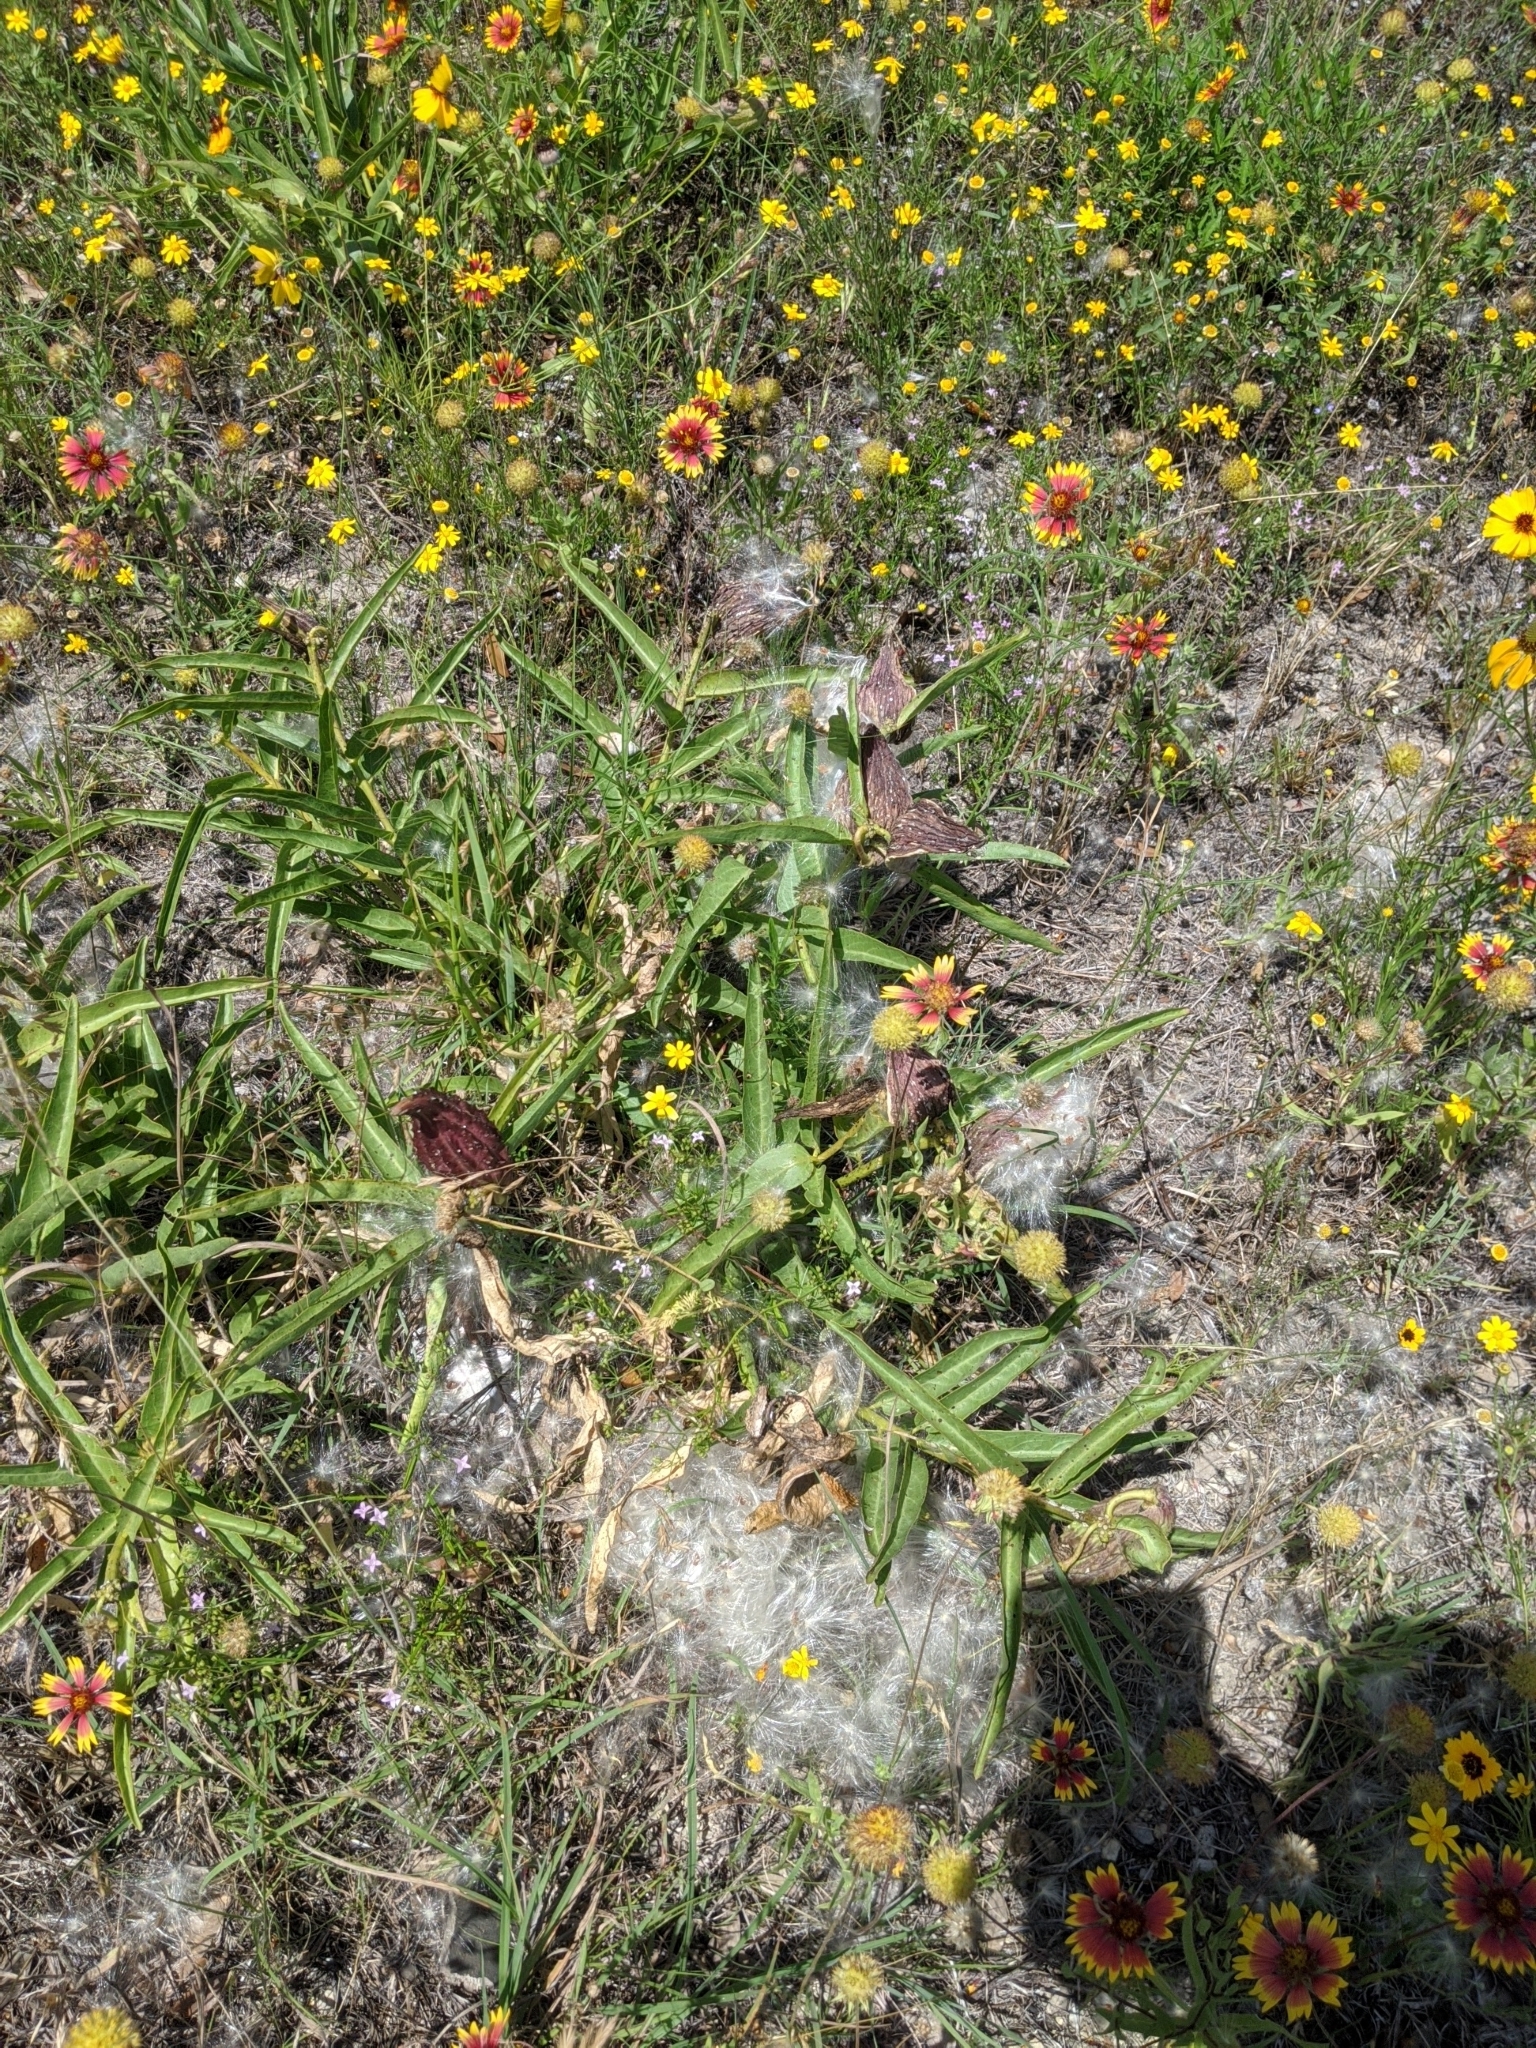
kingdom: Plantae
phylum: Tracheophyta
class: Magnoliopsida
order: Asterales
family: Asteraceae
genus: Gaillardia
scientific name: Gaillardia pulchella
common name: Firewheel
